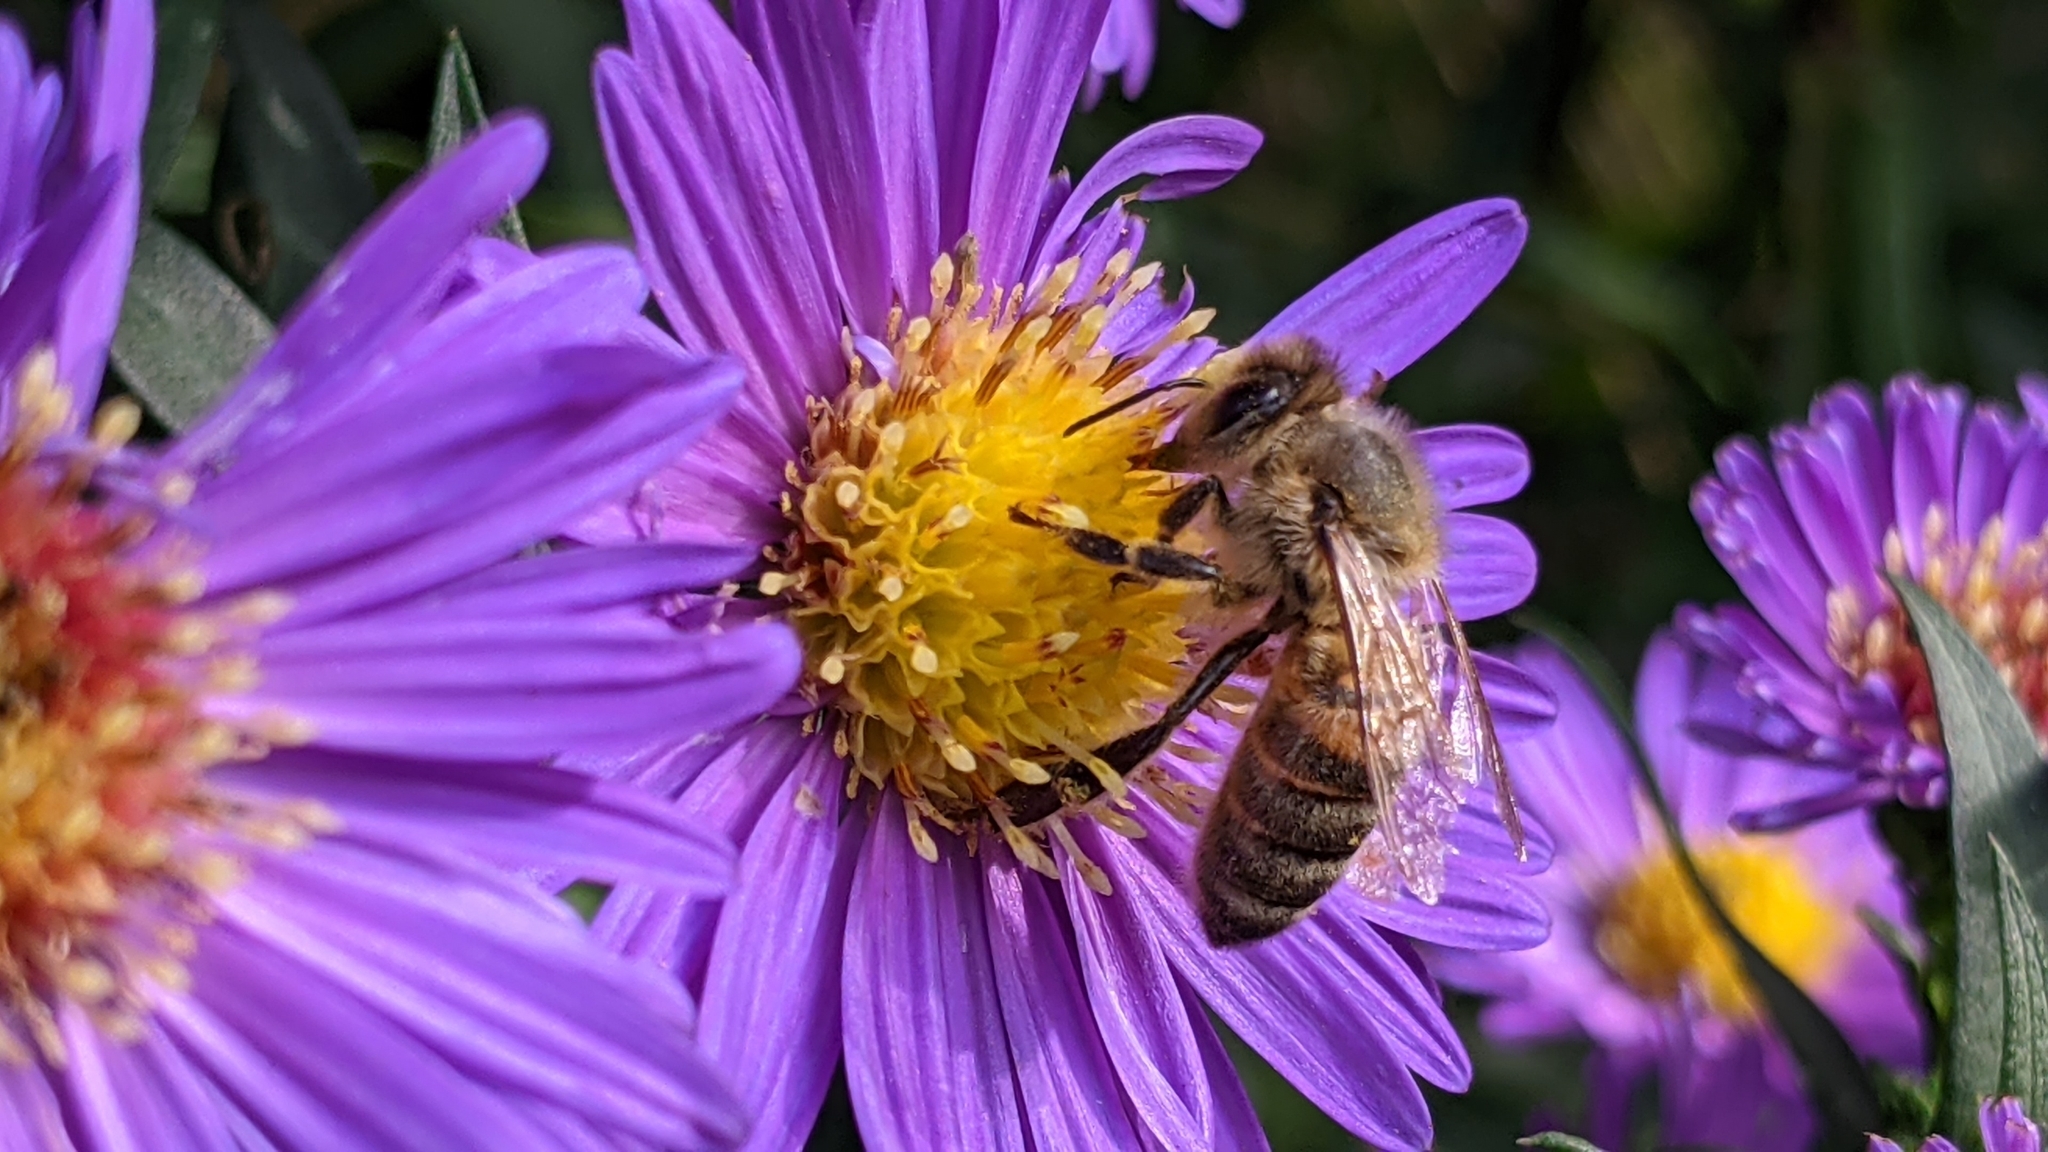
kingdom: Animalia
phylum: Arthropoda
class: Insecta
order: Hymenoptera
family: Apidae
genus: Apis
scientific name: Apis mellifera
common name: Honey bee
